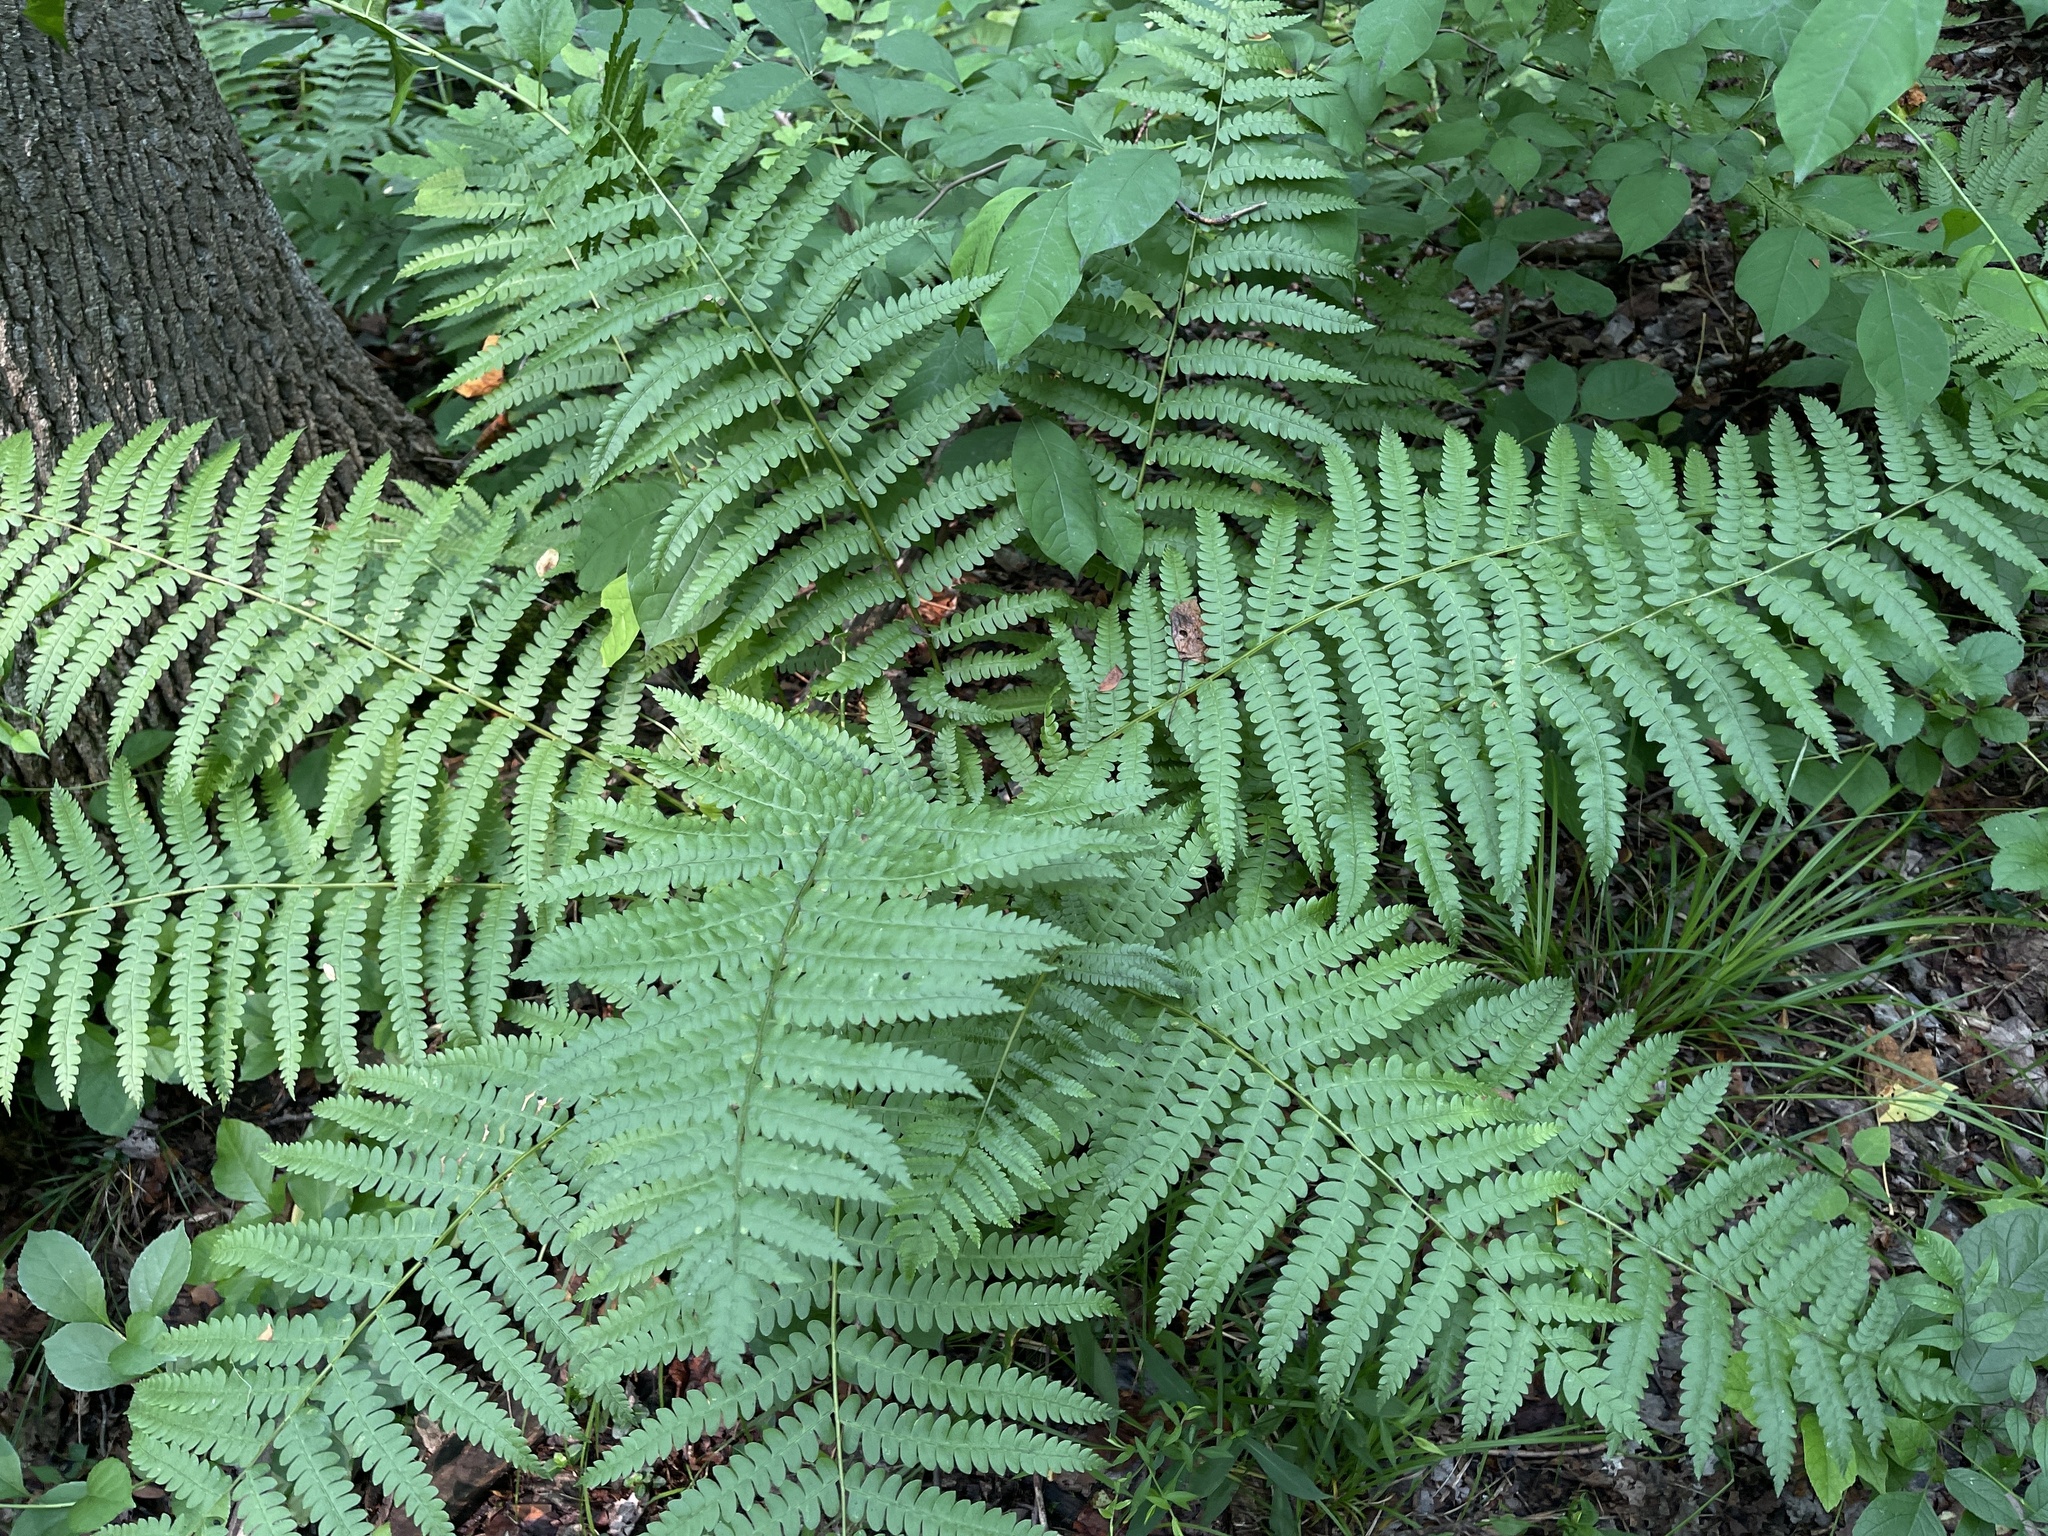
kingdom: Plantae
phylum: Tracheophyta
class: Polypodiopsida
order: Osmundales
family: Osmundaceae
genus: Osmundastrum
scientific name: Osmundastrum cinnamomeum
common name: Cinnamon fern
